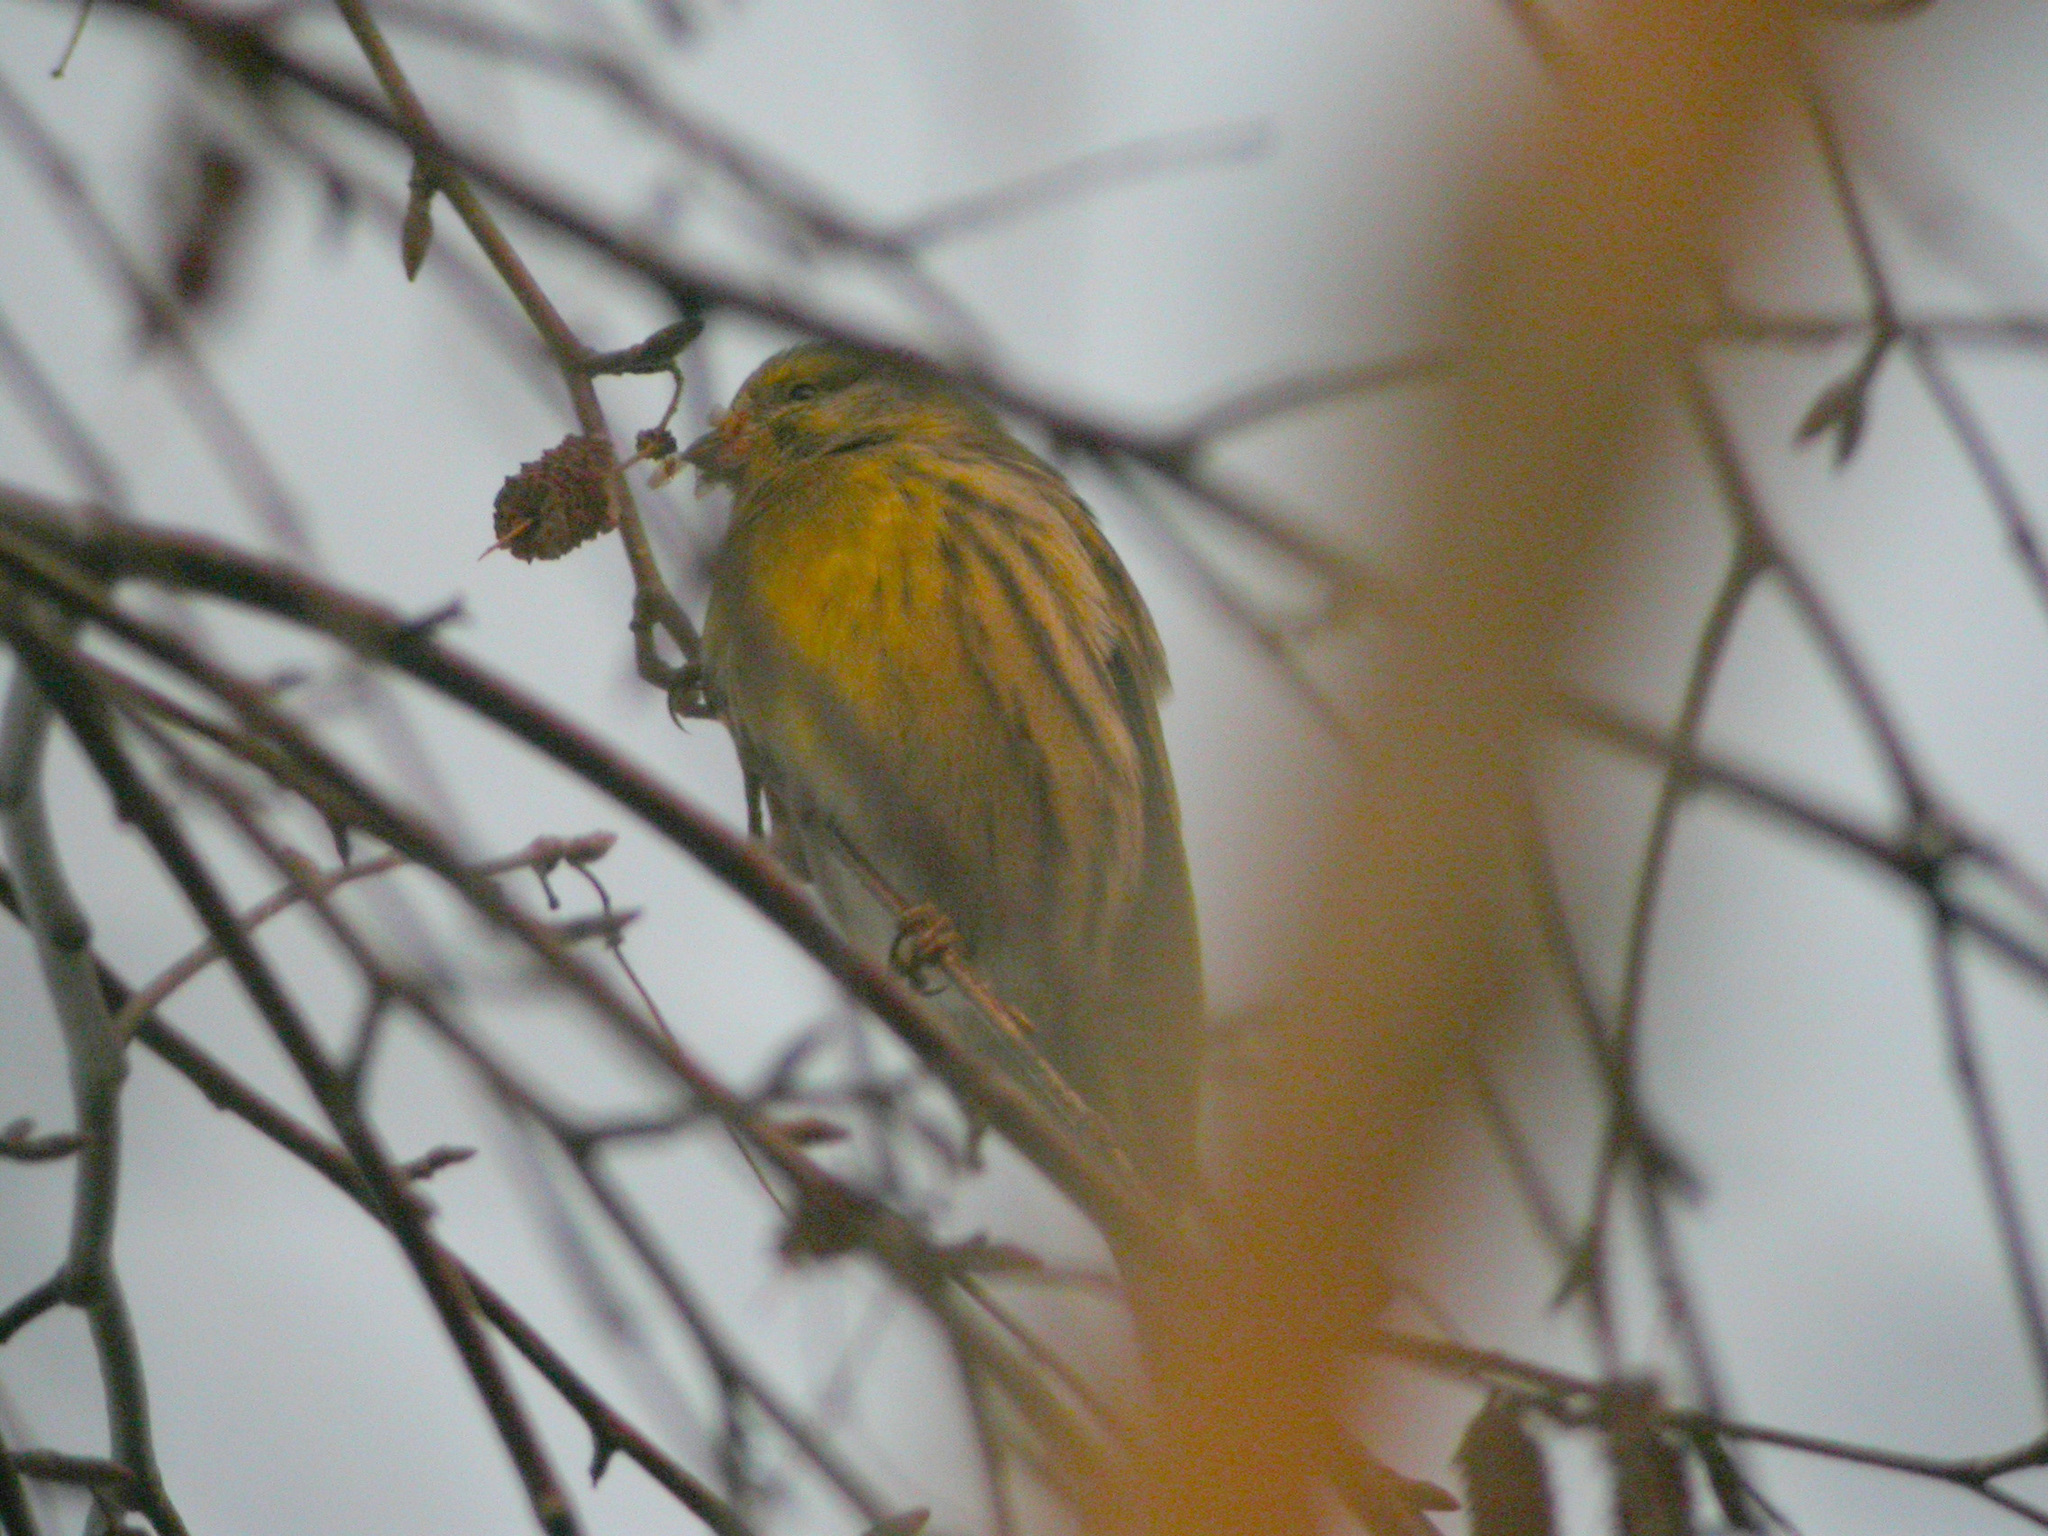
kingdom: Animalia
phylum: Chordata
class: Aves
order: Passeriformes
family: Fringillidae
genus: Serinus
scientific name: Serinus serinus
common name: European serin
